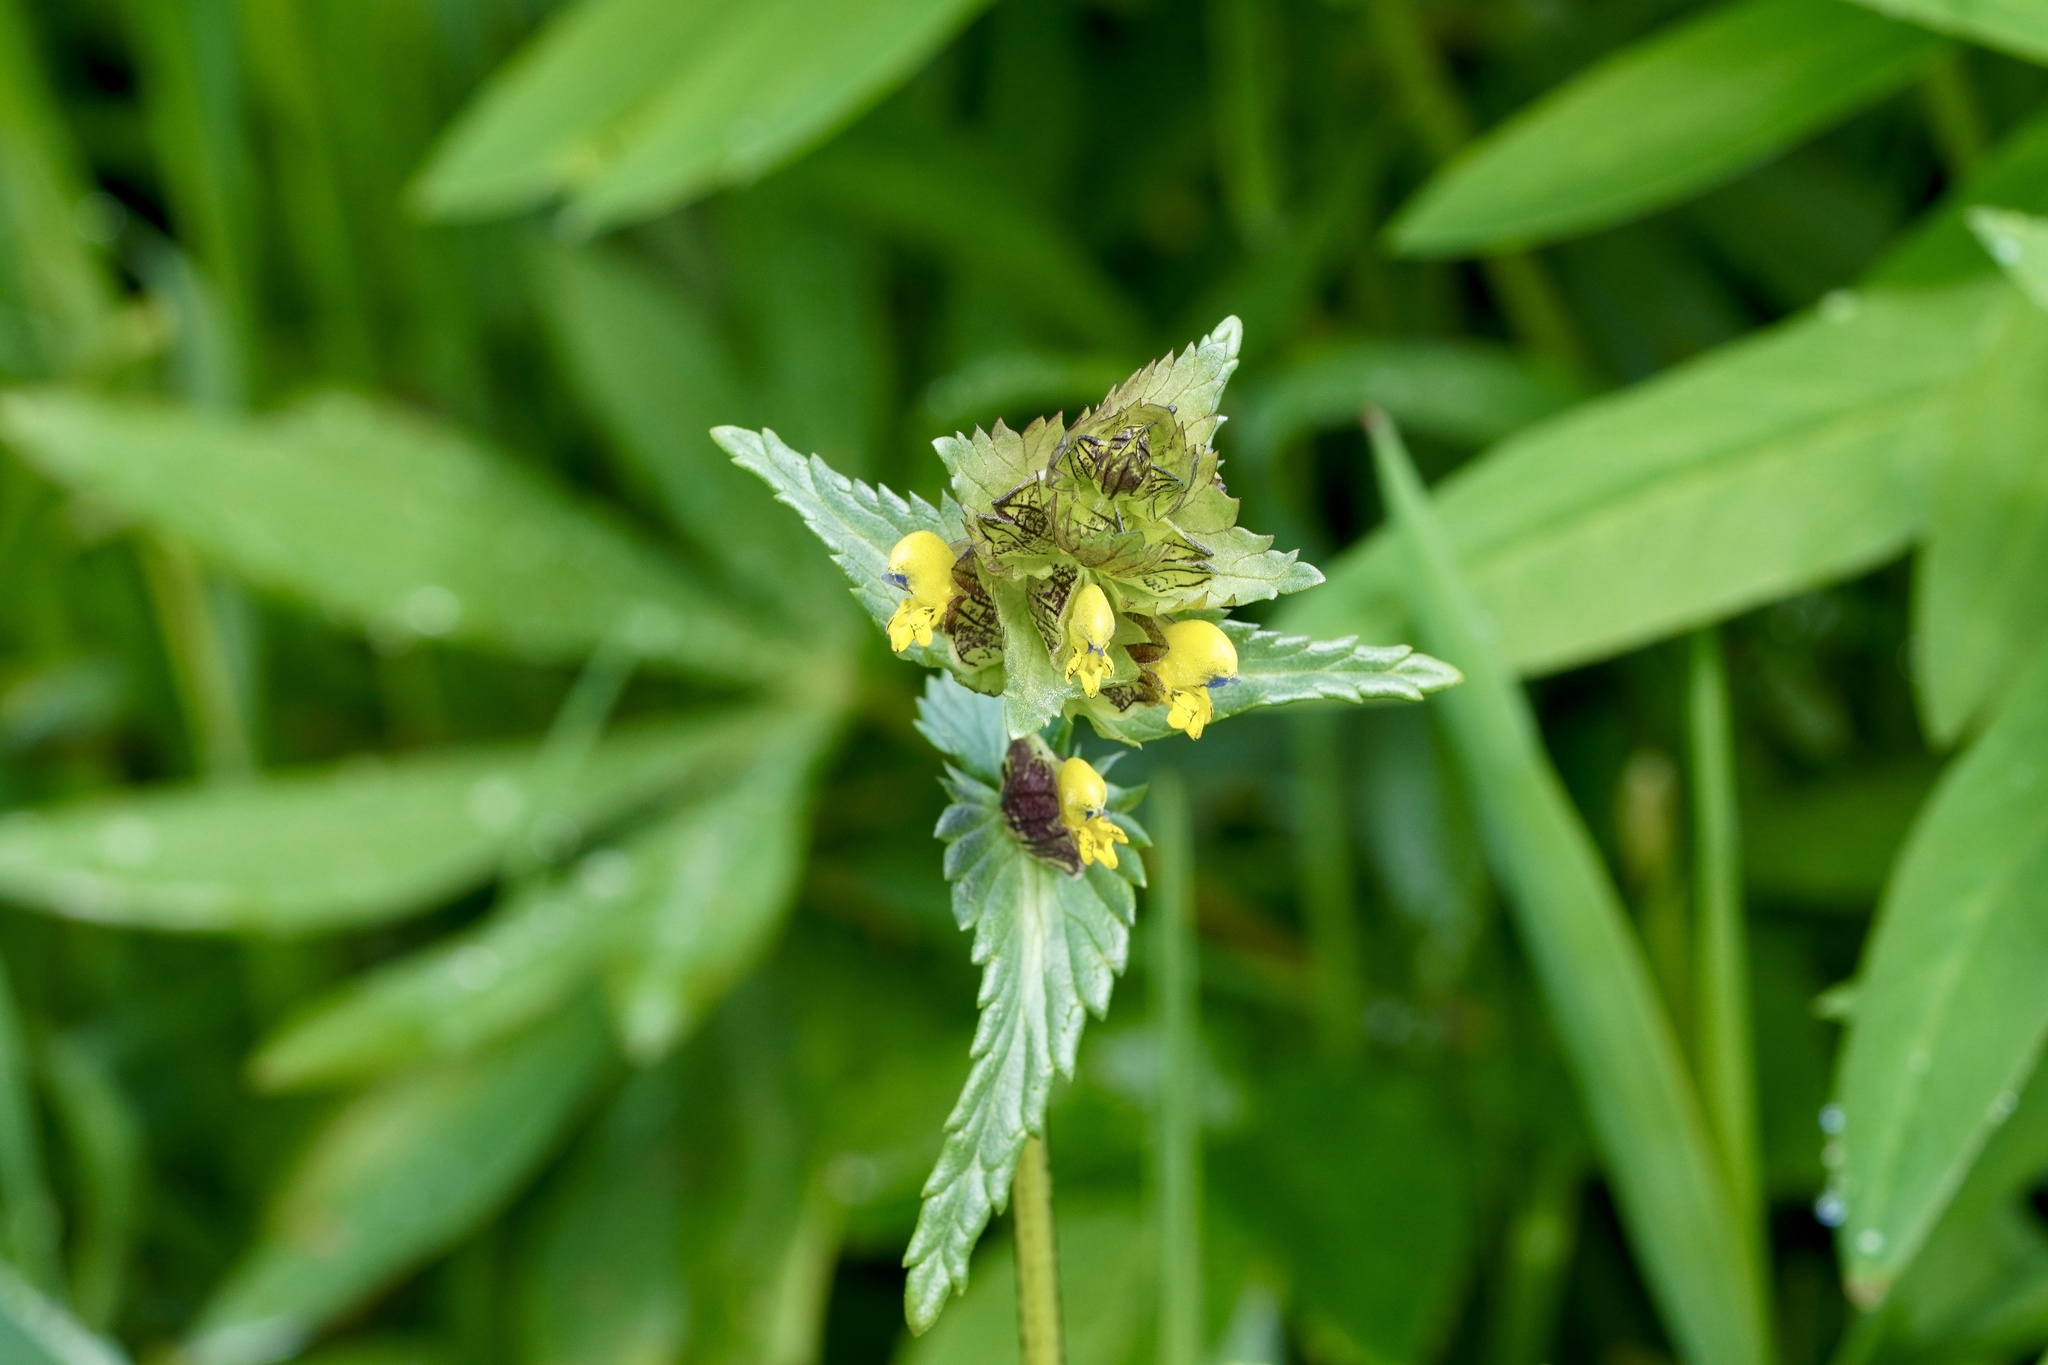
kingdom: Plantae
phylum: Tracheophyta
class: Magnoliopsida
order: Lamiales
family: Orobanchaceae
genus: Rhinanthus
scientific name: Rhinanthus minor
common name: Yellow-rattle
